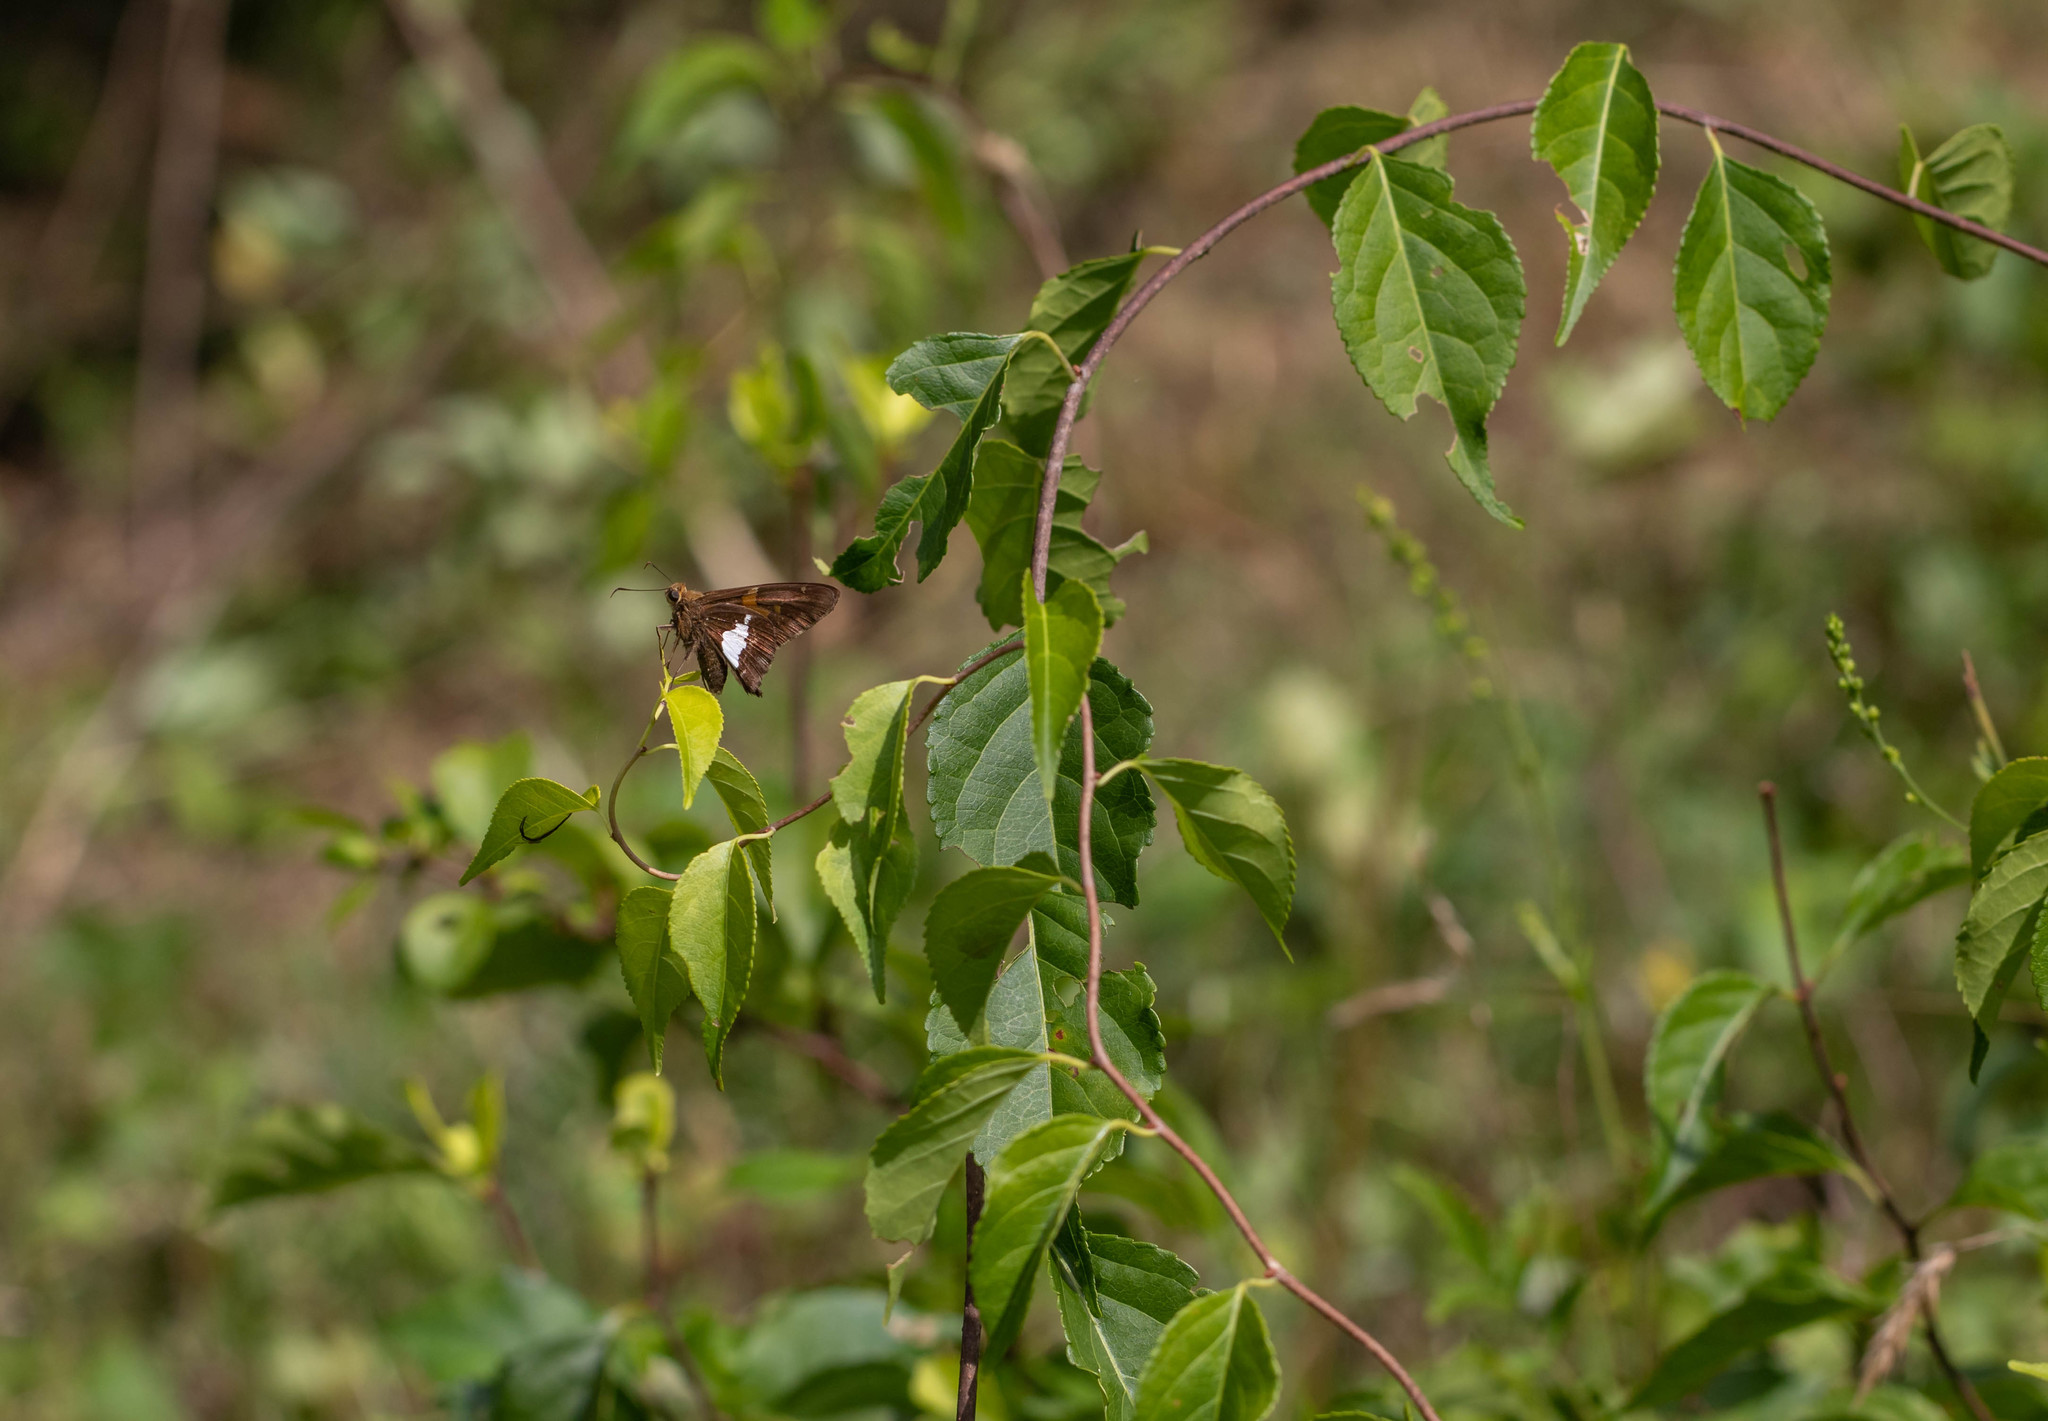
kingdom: Animalia
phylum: Arthropoda
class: Insecta
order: Lepidoptera
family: Hesperiidae
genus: Epargyreus
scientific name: Epargyreus clarus
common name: Silver-spotted skipper
